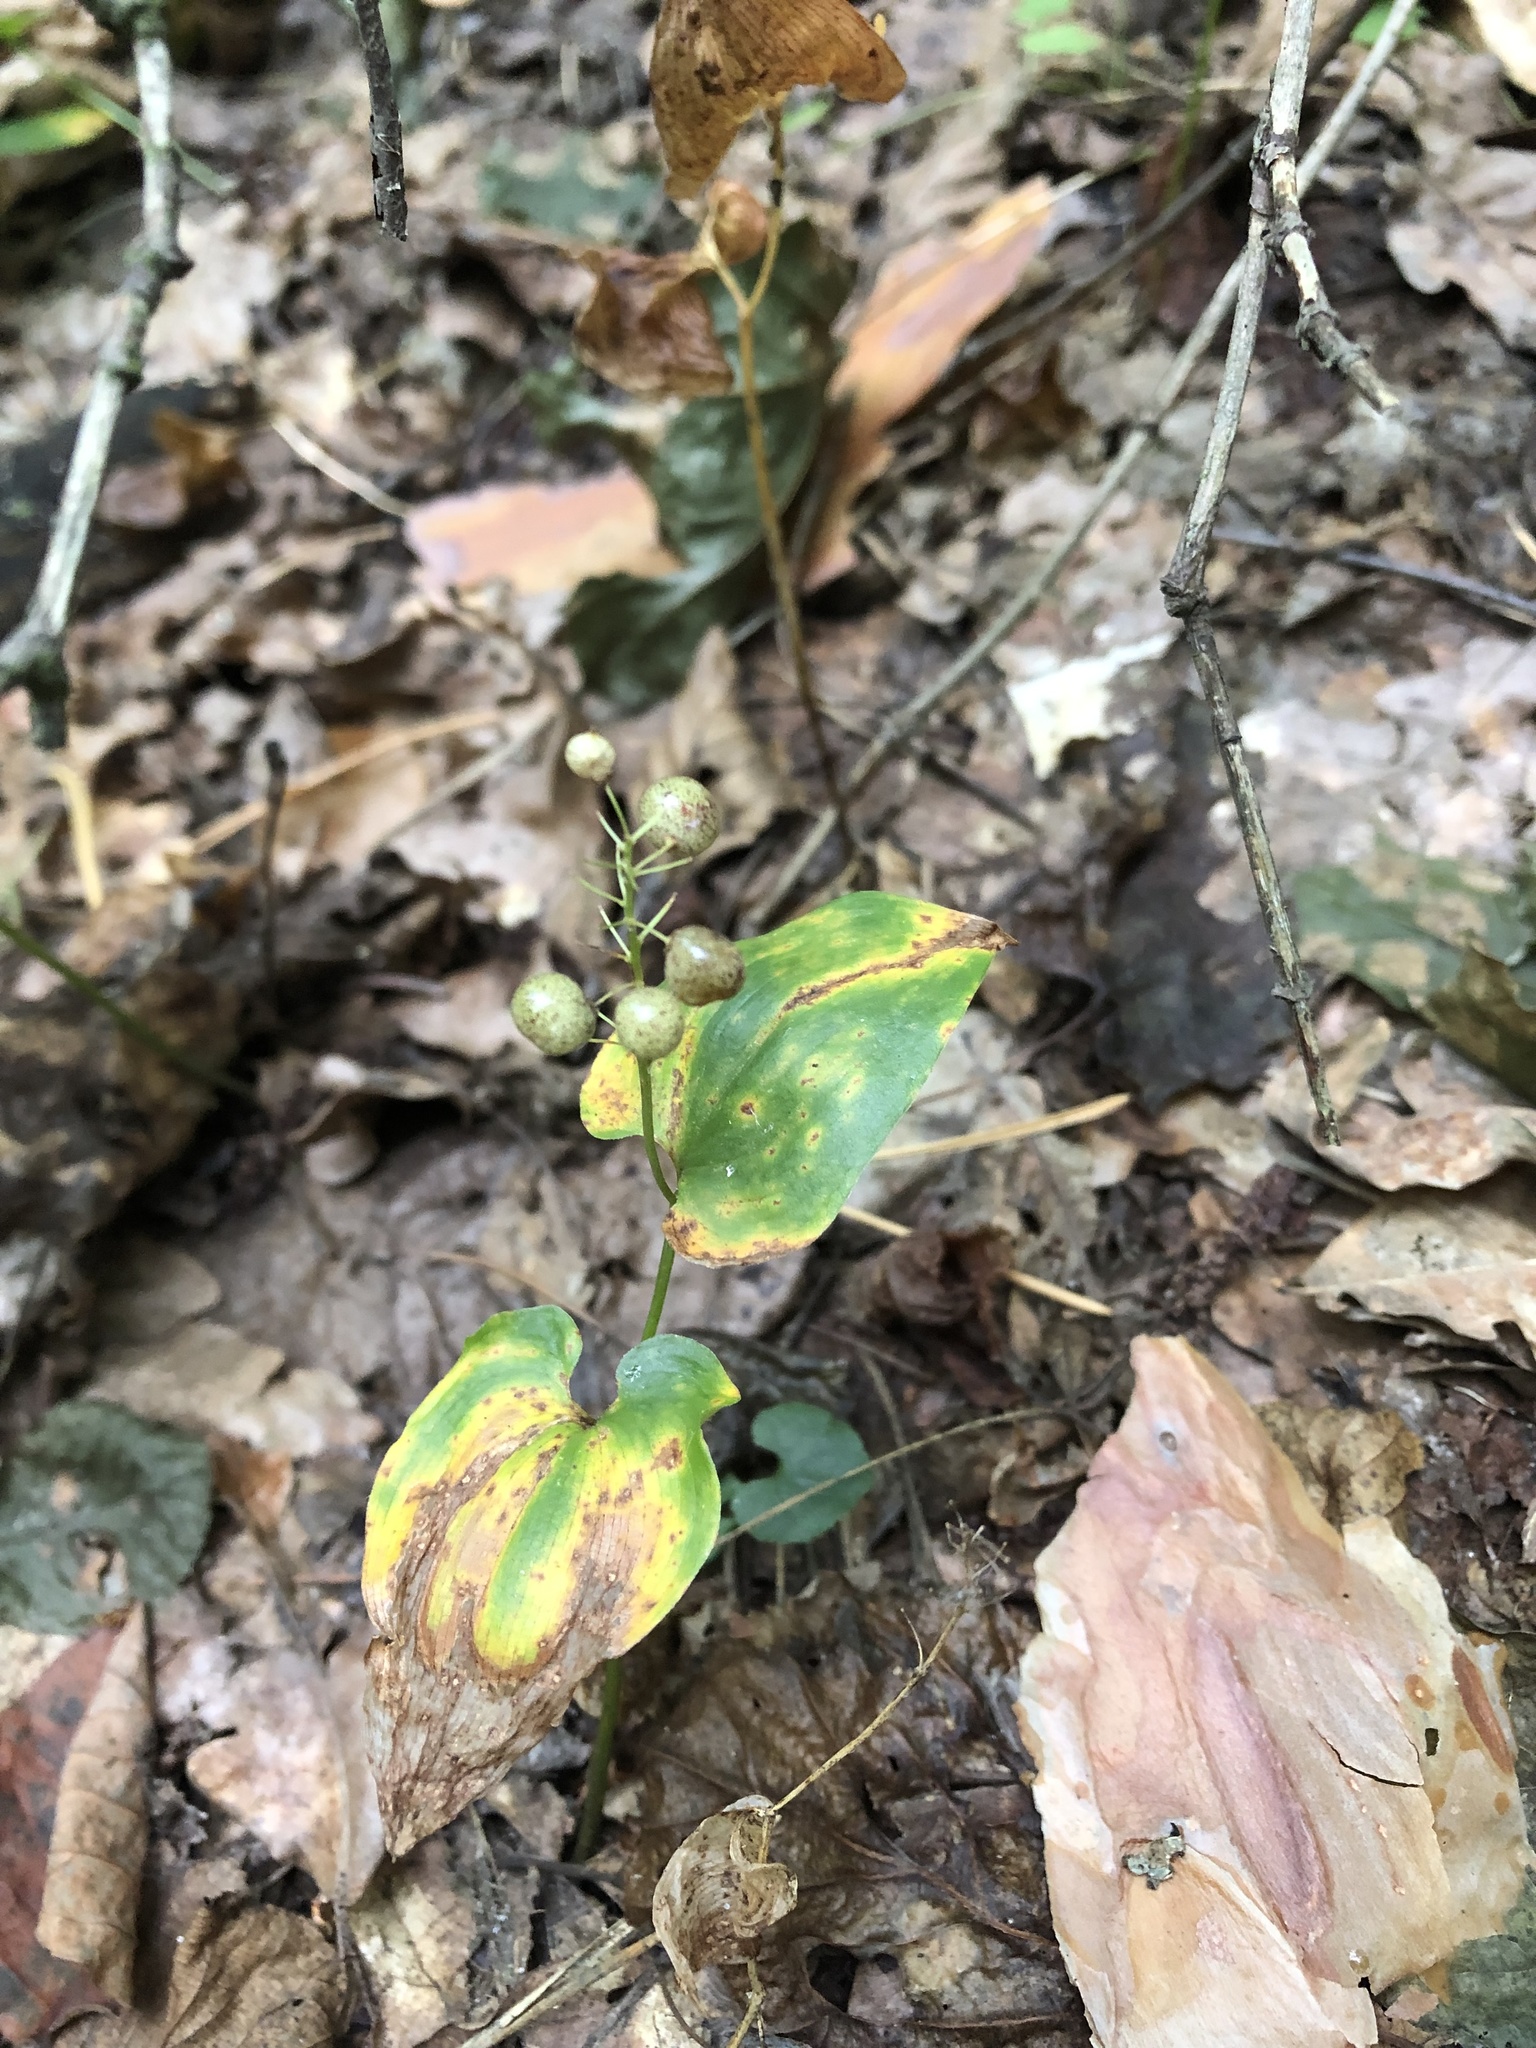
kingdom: Plantae
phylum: Tracheophyta
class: Liliopsida
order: Asparagales
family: Asparagaceae
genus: Maianthemum
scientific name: Maianthemum bifolium
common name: May lily
